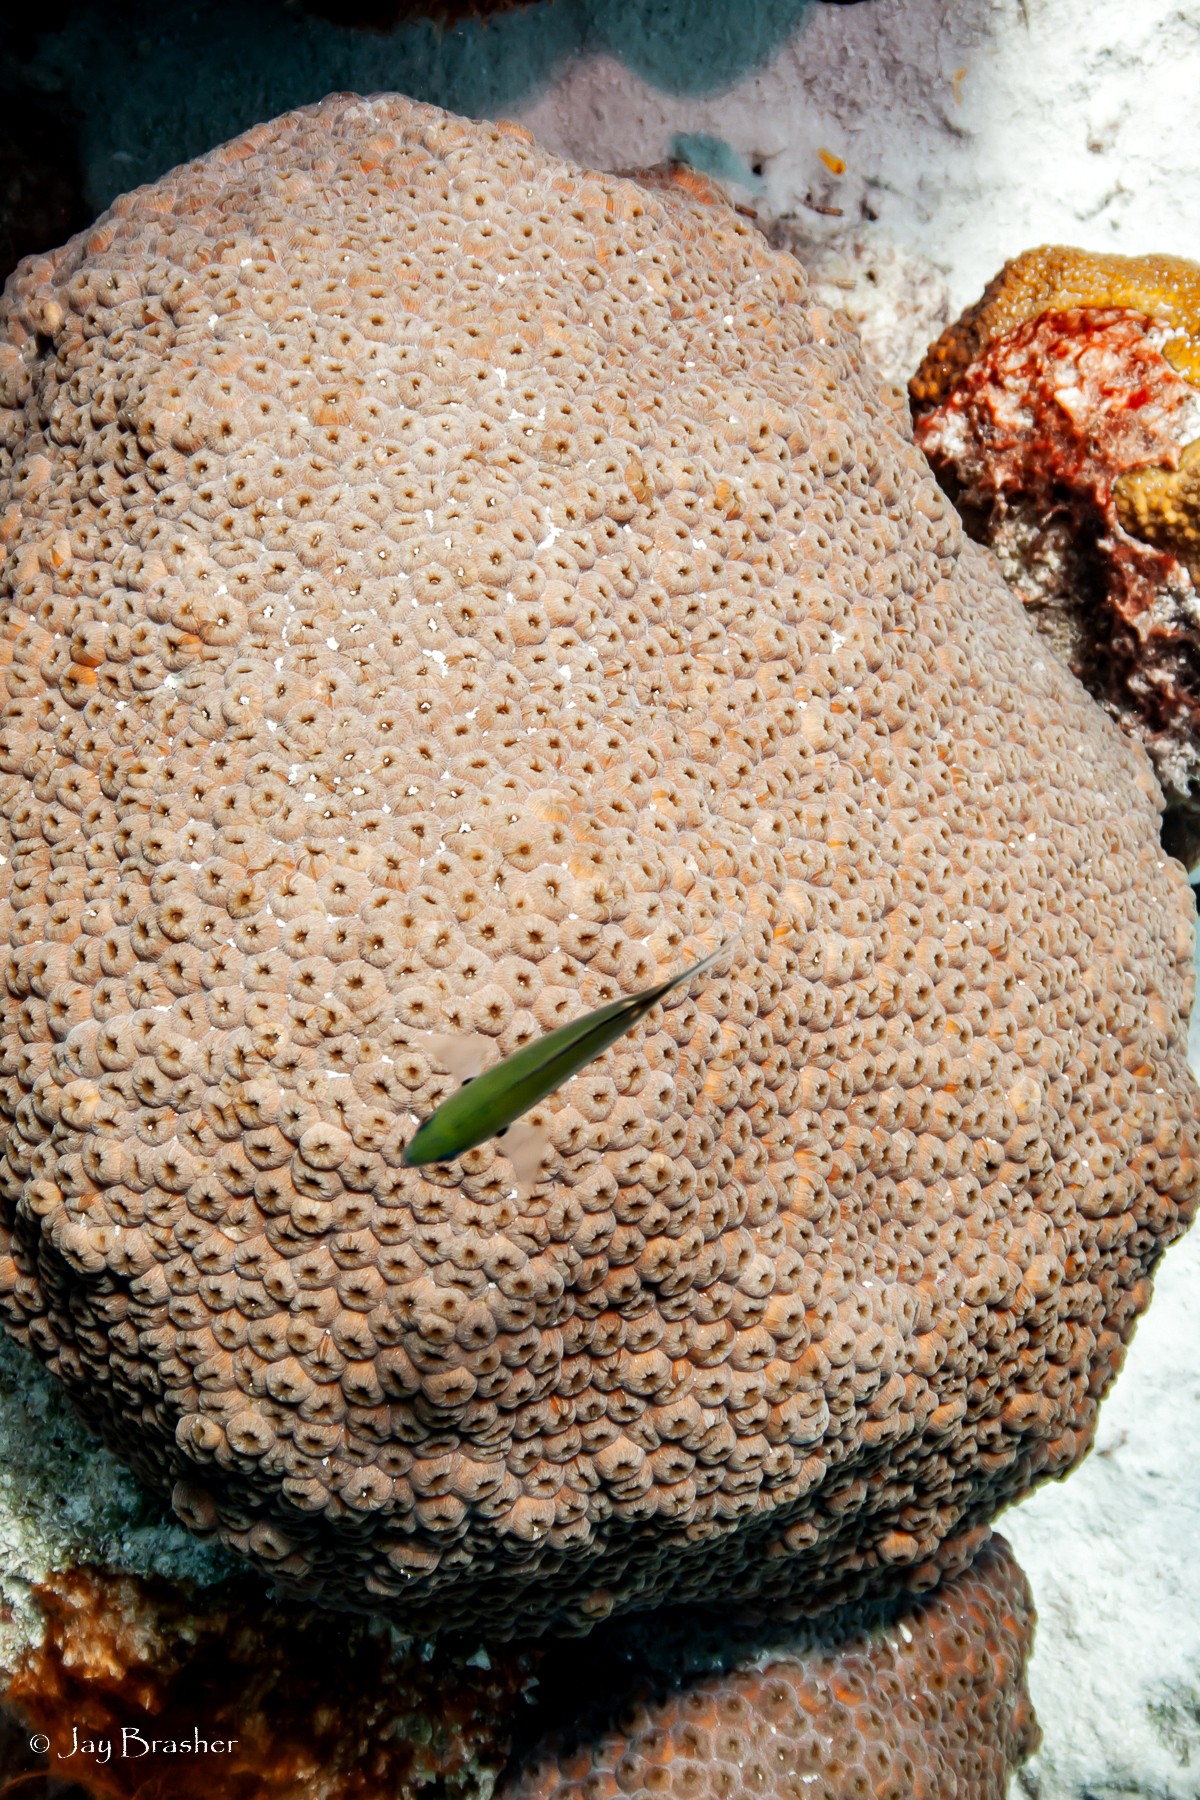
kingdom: Animalia
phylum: Cnidaria
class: Anthozoa
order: Scleractinia
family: Montastraeidae
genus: Montastraea
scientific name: Montastraea cavernosa
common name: Great star coral
